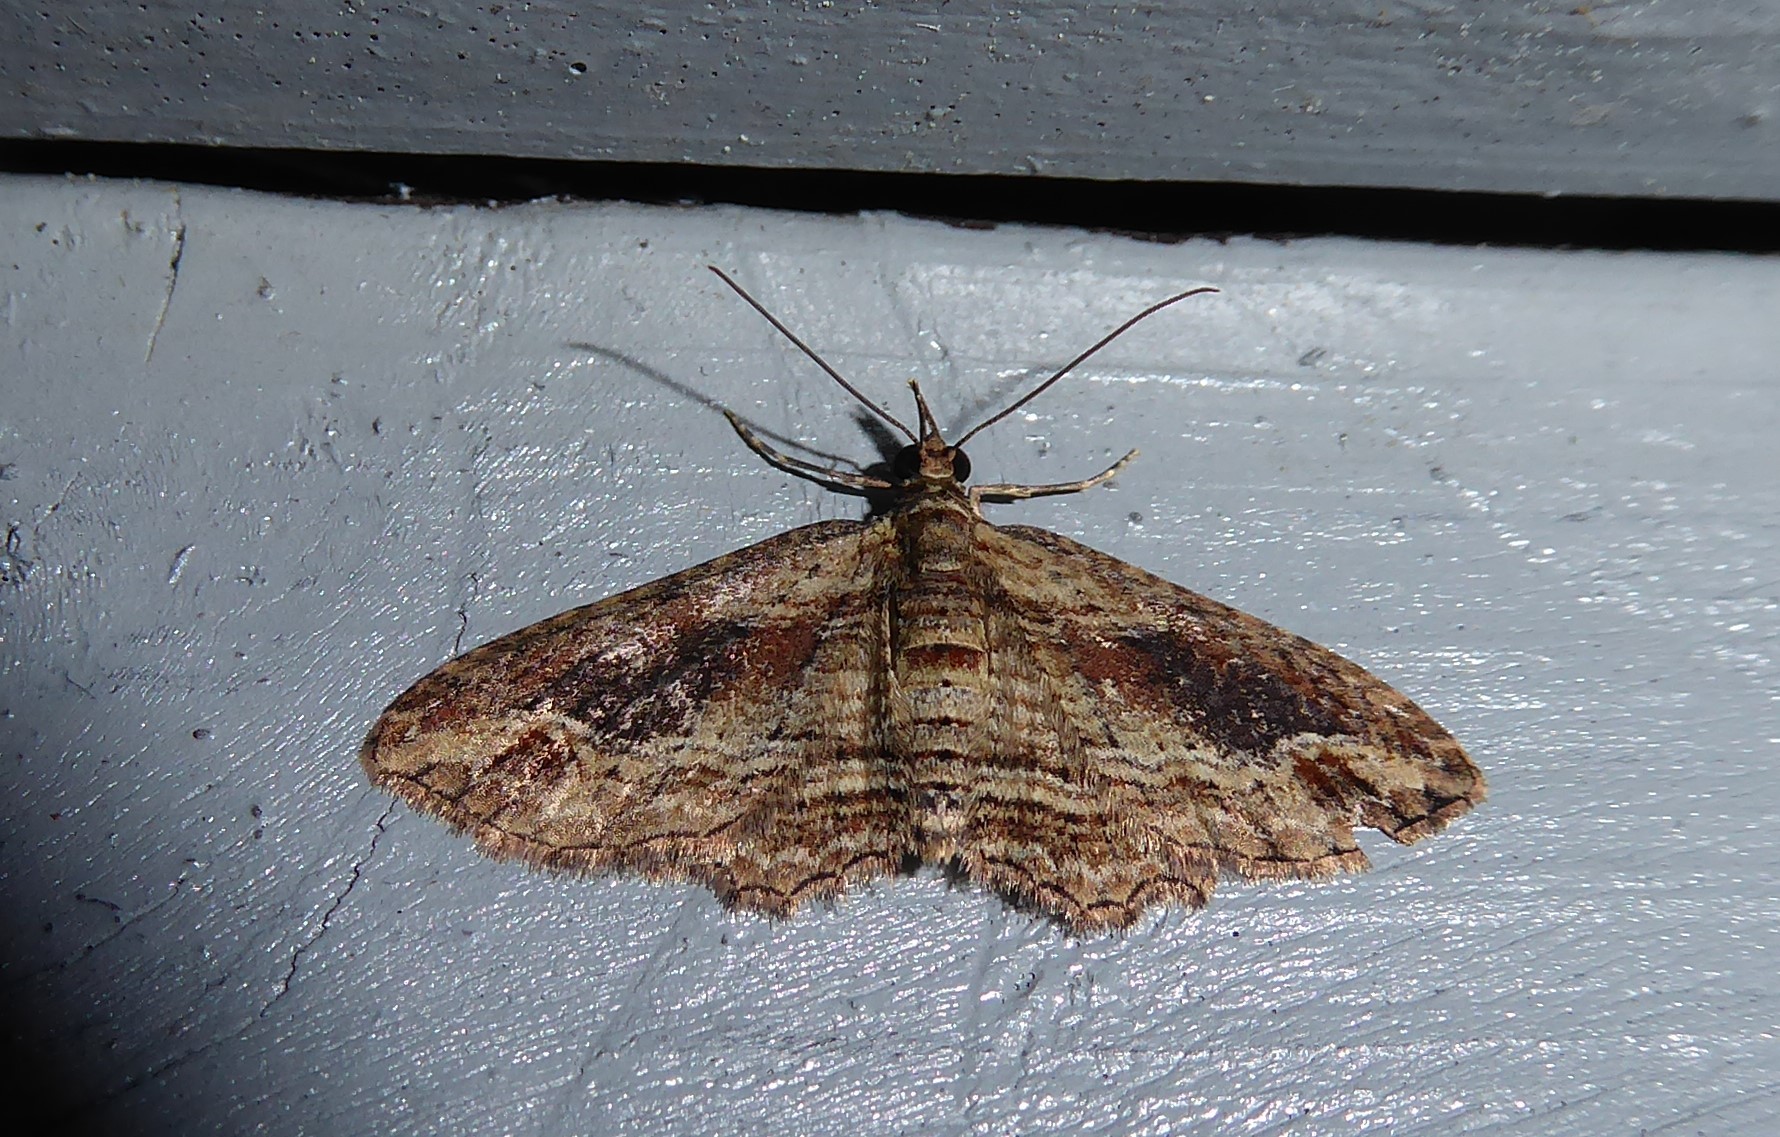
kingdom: Animalia
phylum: Arthropoda
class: Insecta
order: Lepidoptera
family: Geometridae
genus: Chloroclystis
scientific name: Chloroclystis filata
